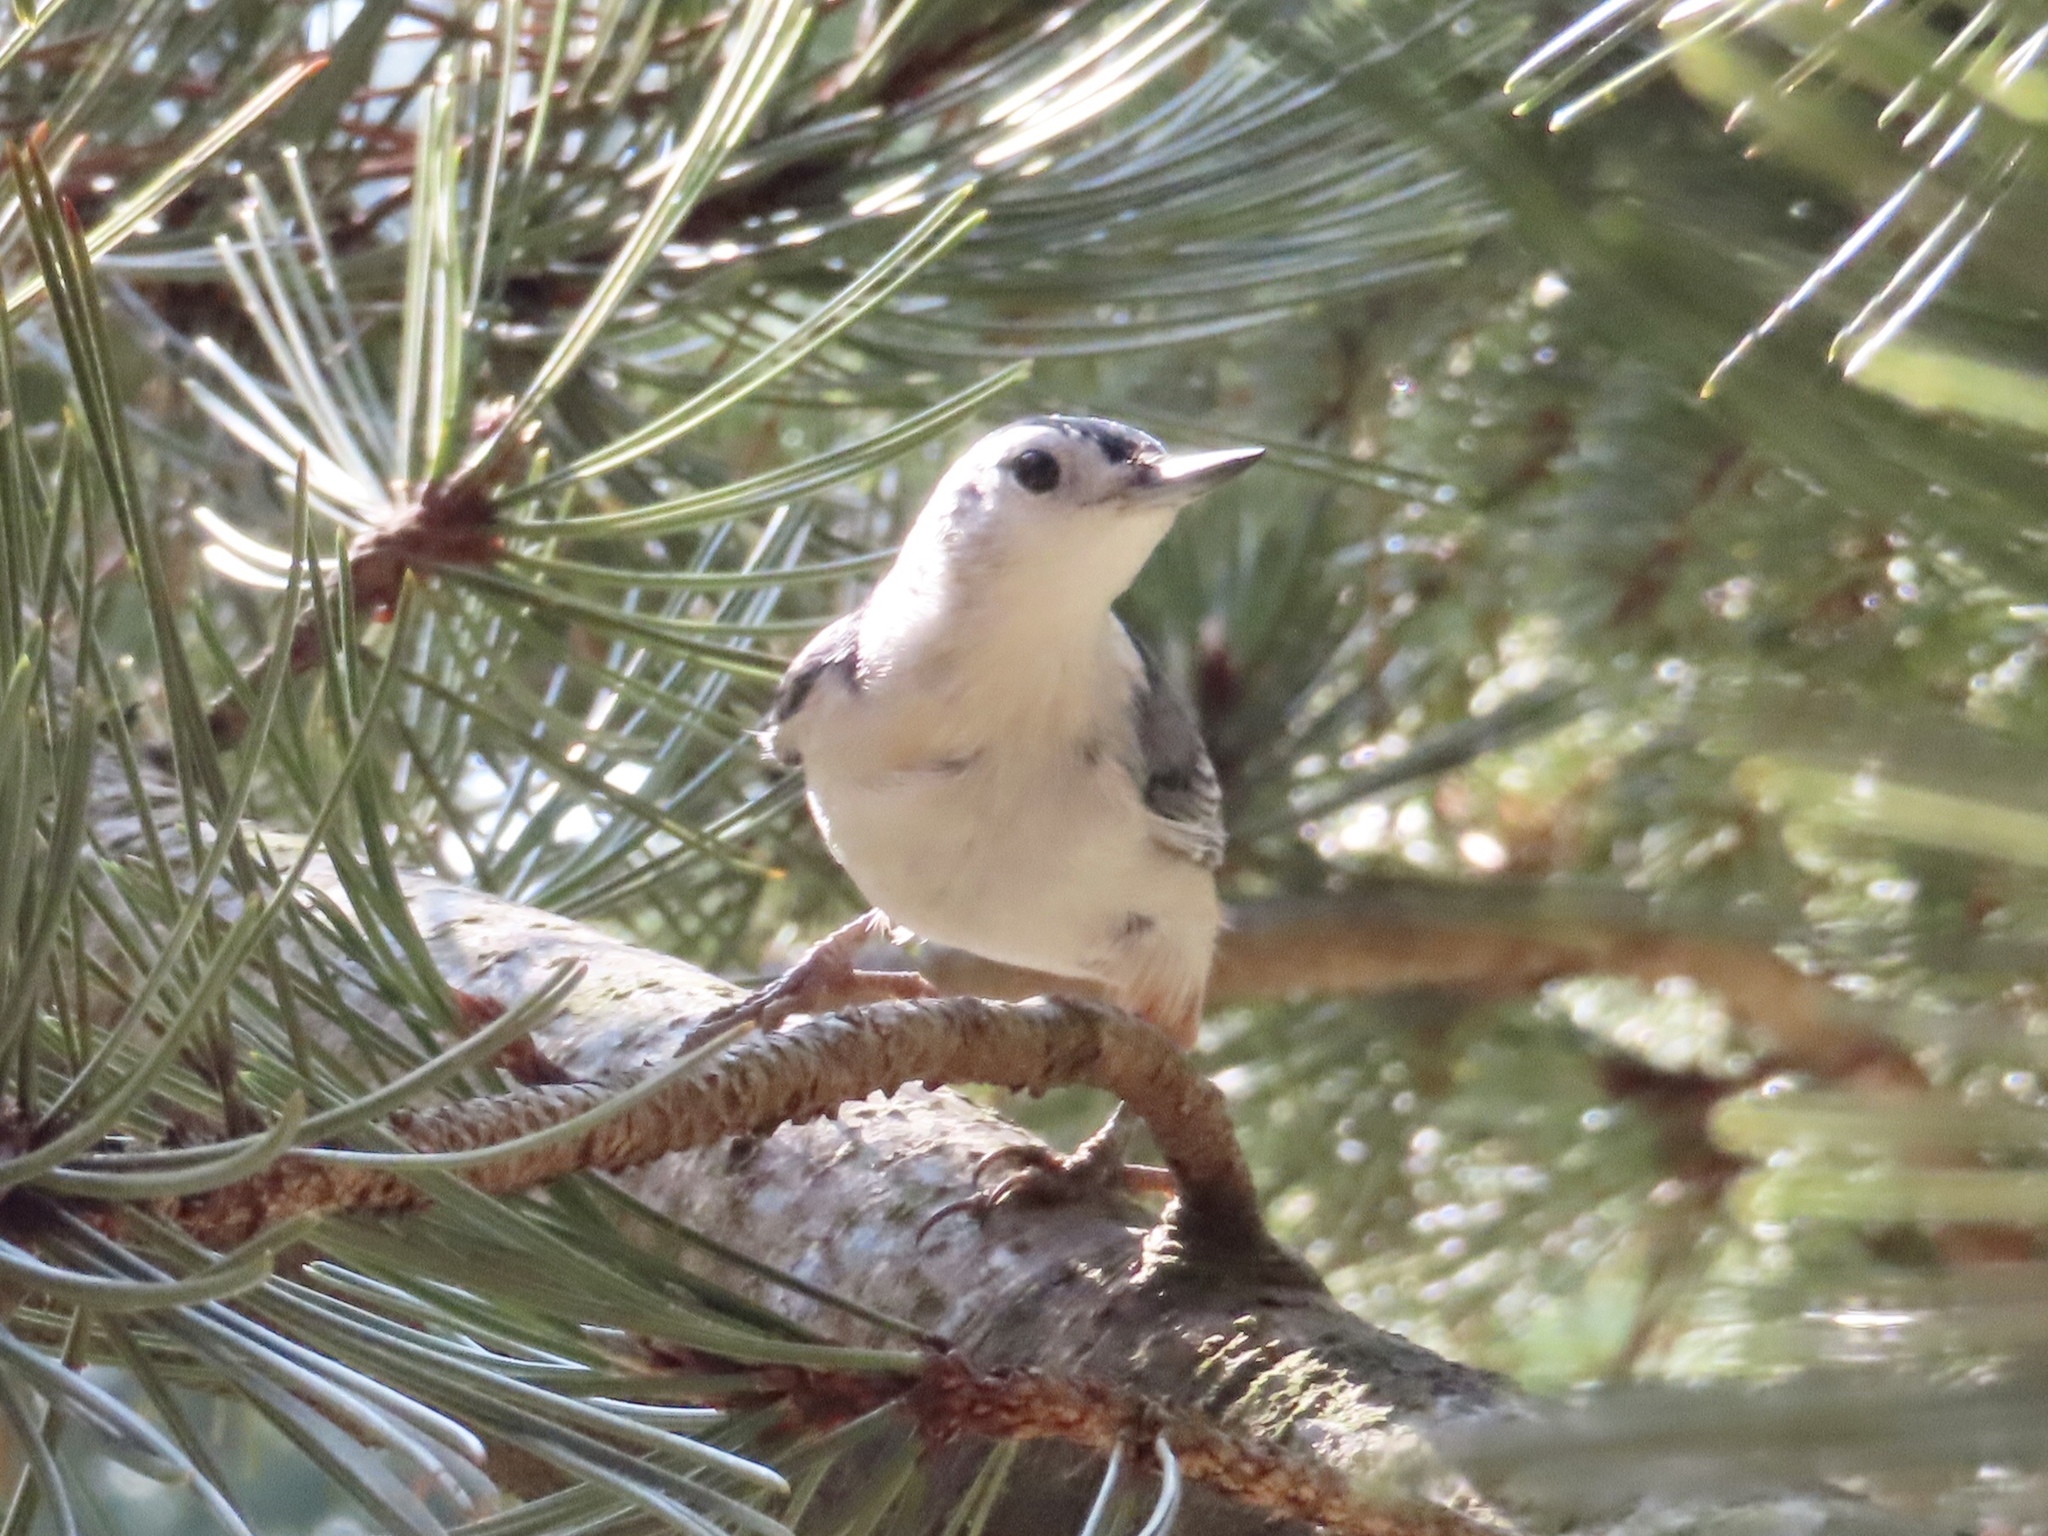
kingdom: Animalia
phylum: Chordata
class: Aves
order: Passeriformes
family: Sittidae
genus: Sitta
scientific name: Sitta carolinensis
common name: White-breasted nuthatch
